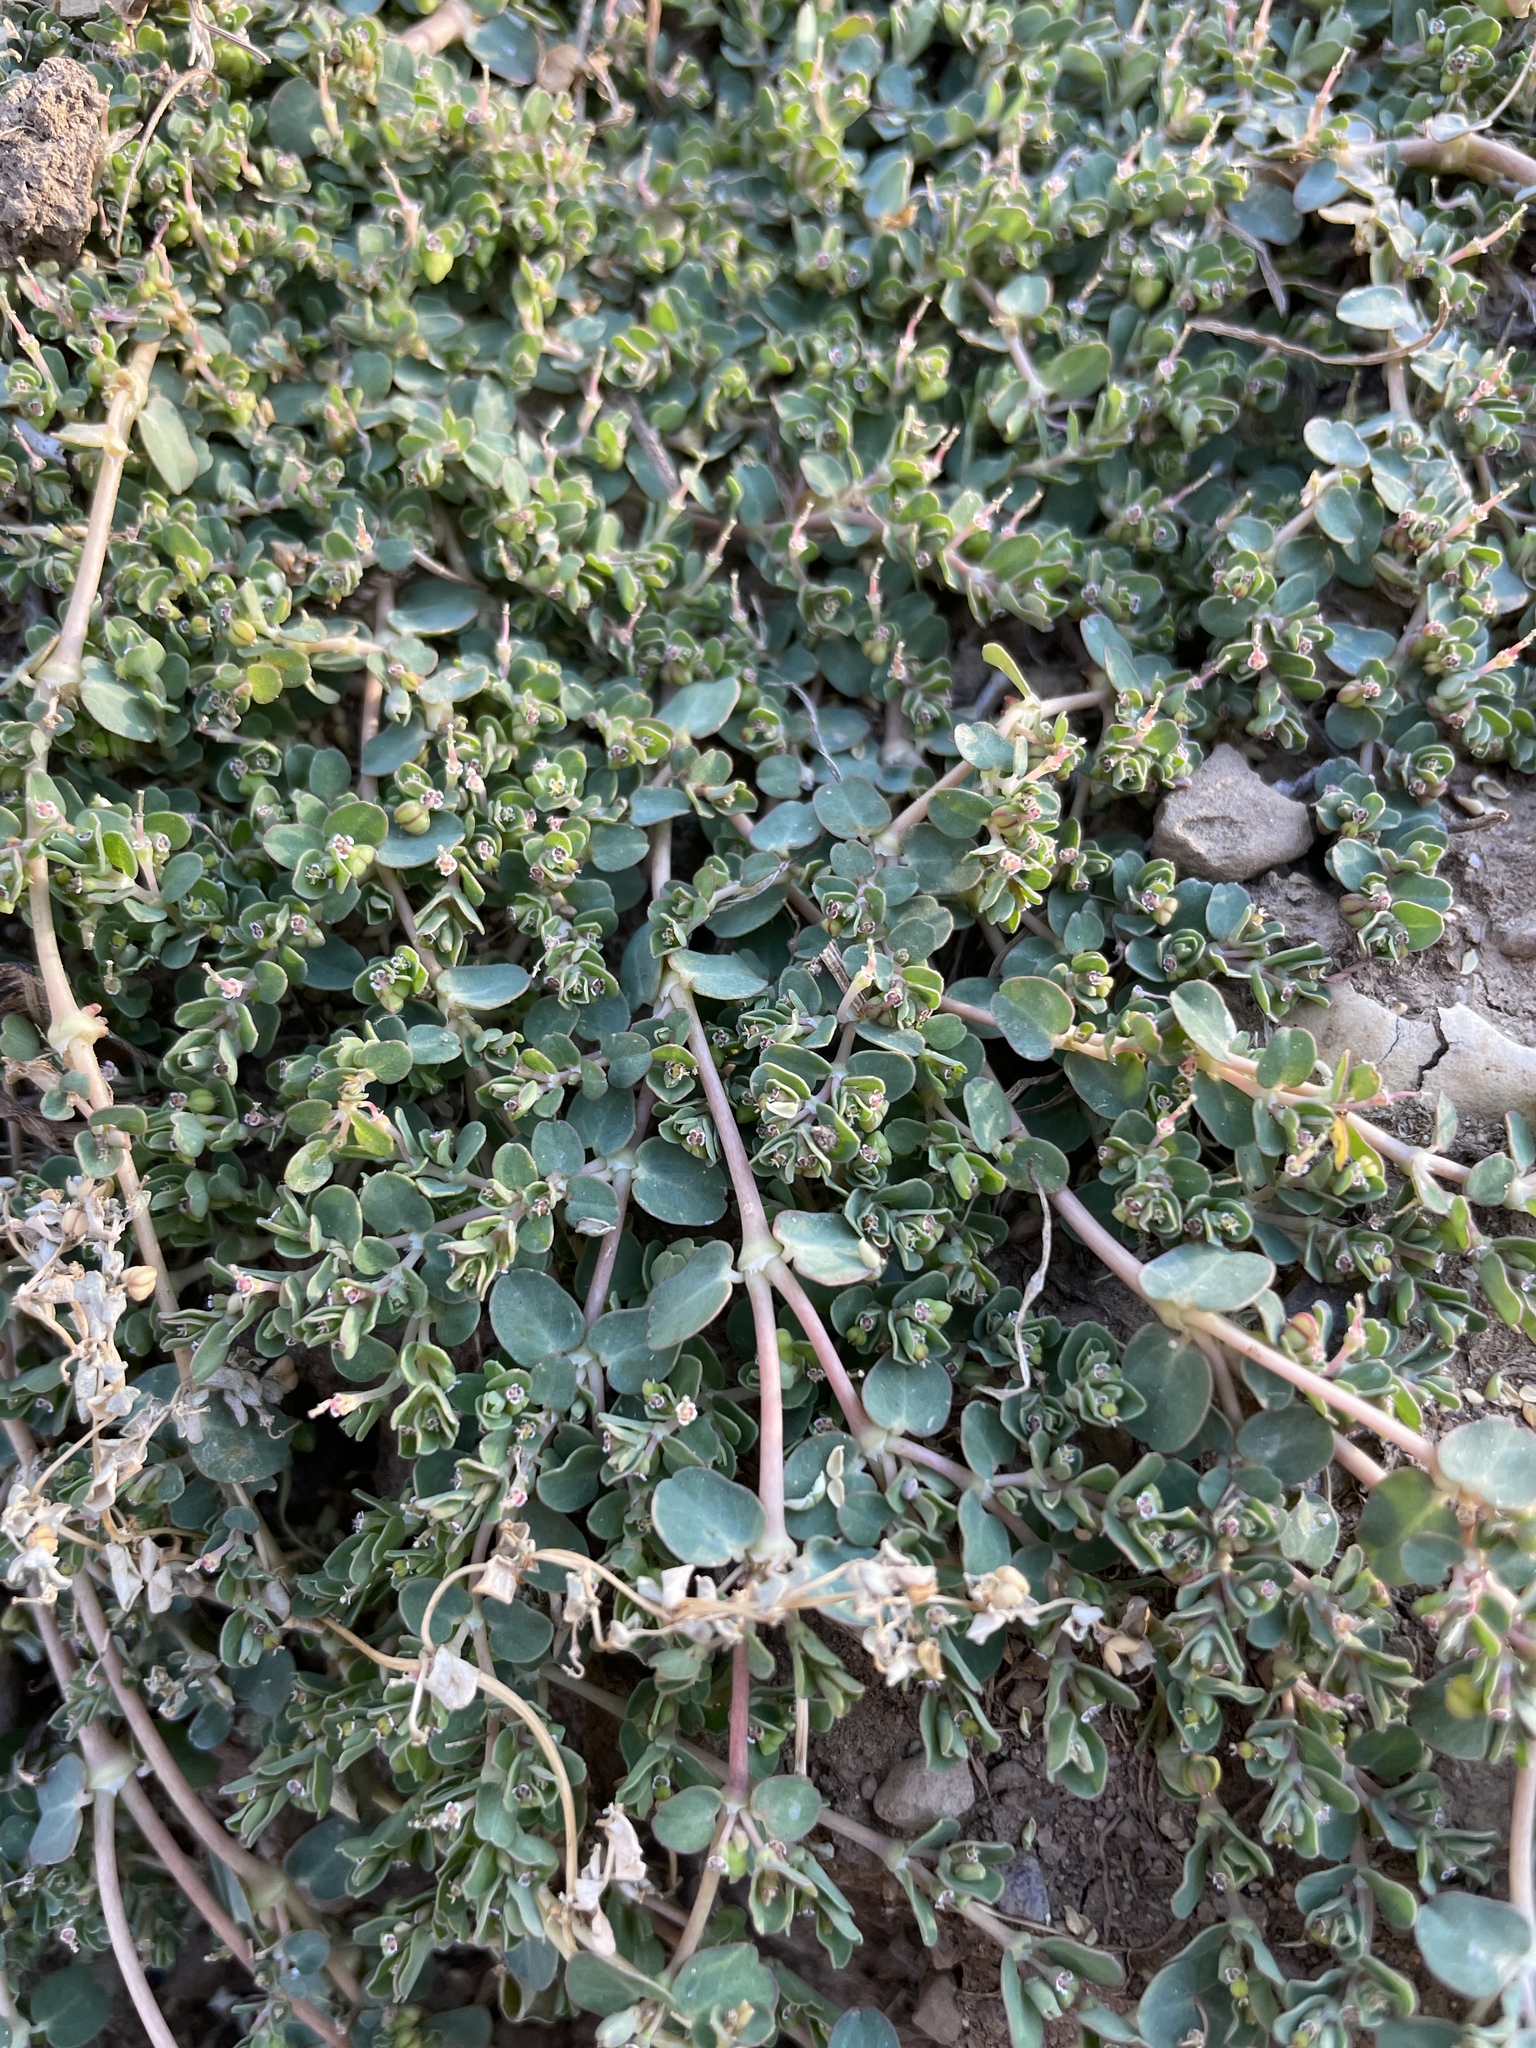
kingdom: Plantae
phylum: Tracheophyta
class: Magnoliopsida
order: Malpighiales
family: Euphorbiaceae
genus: Euphorbia
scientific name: Euphorbia serpens
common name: Matted sandmat
